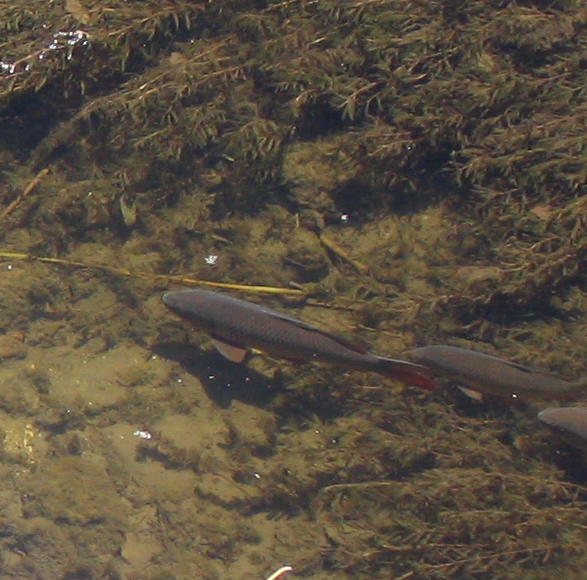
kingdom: Animalia
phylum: Chordata
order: Cypriniformes
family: Cyprinidae
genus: Cyprinus
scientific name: Cyprinus carpio
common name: Common carp
